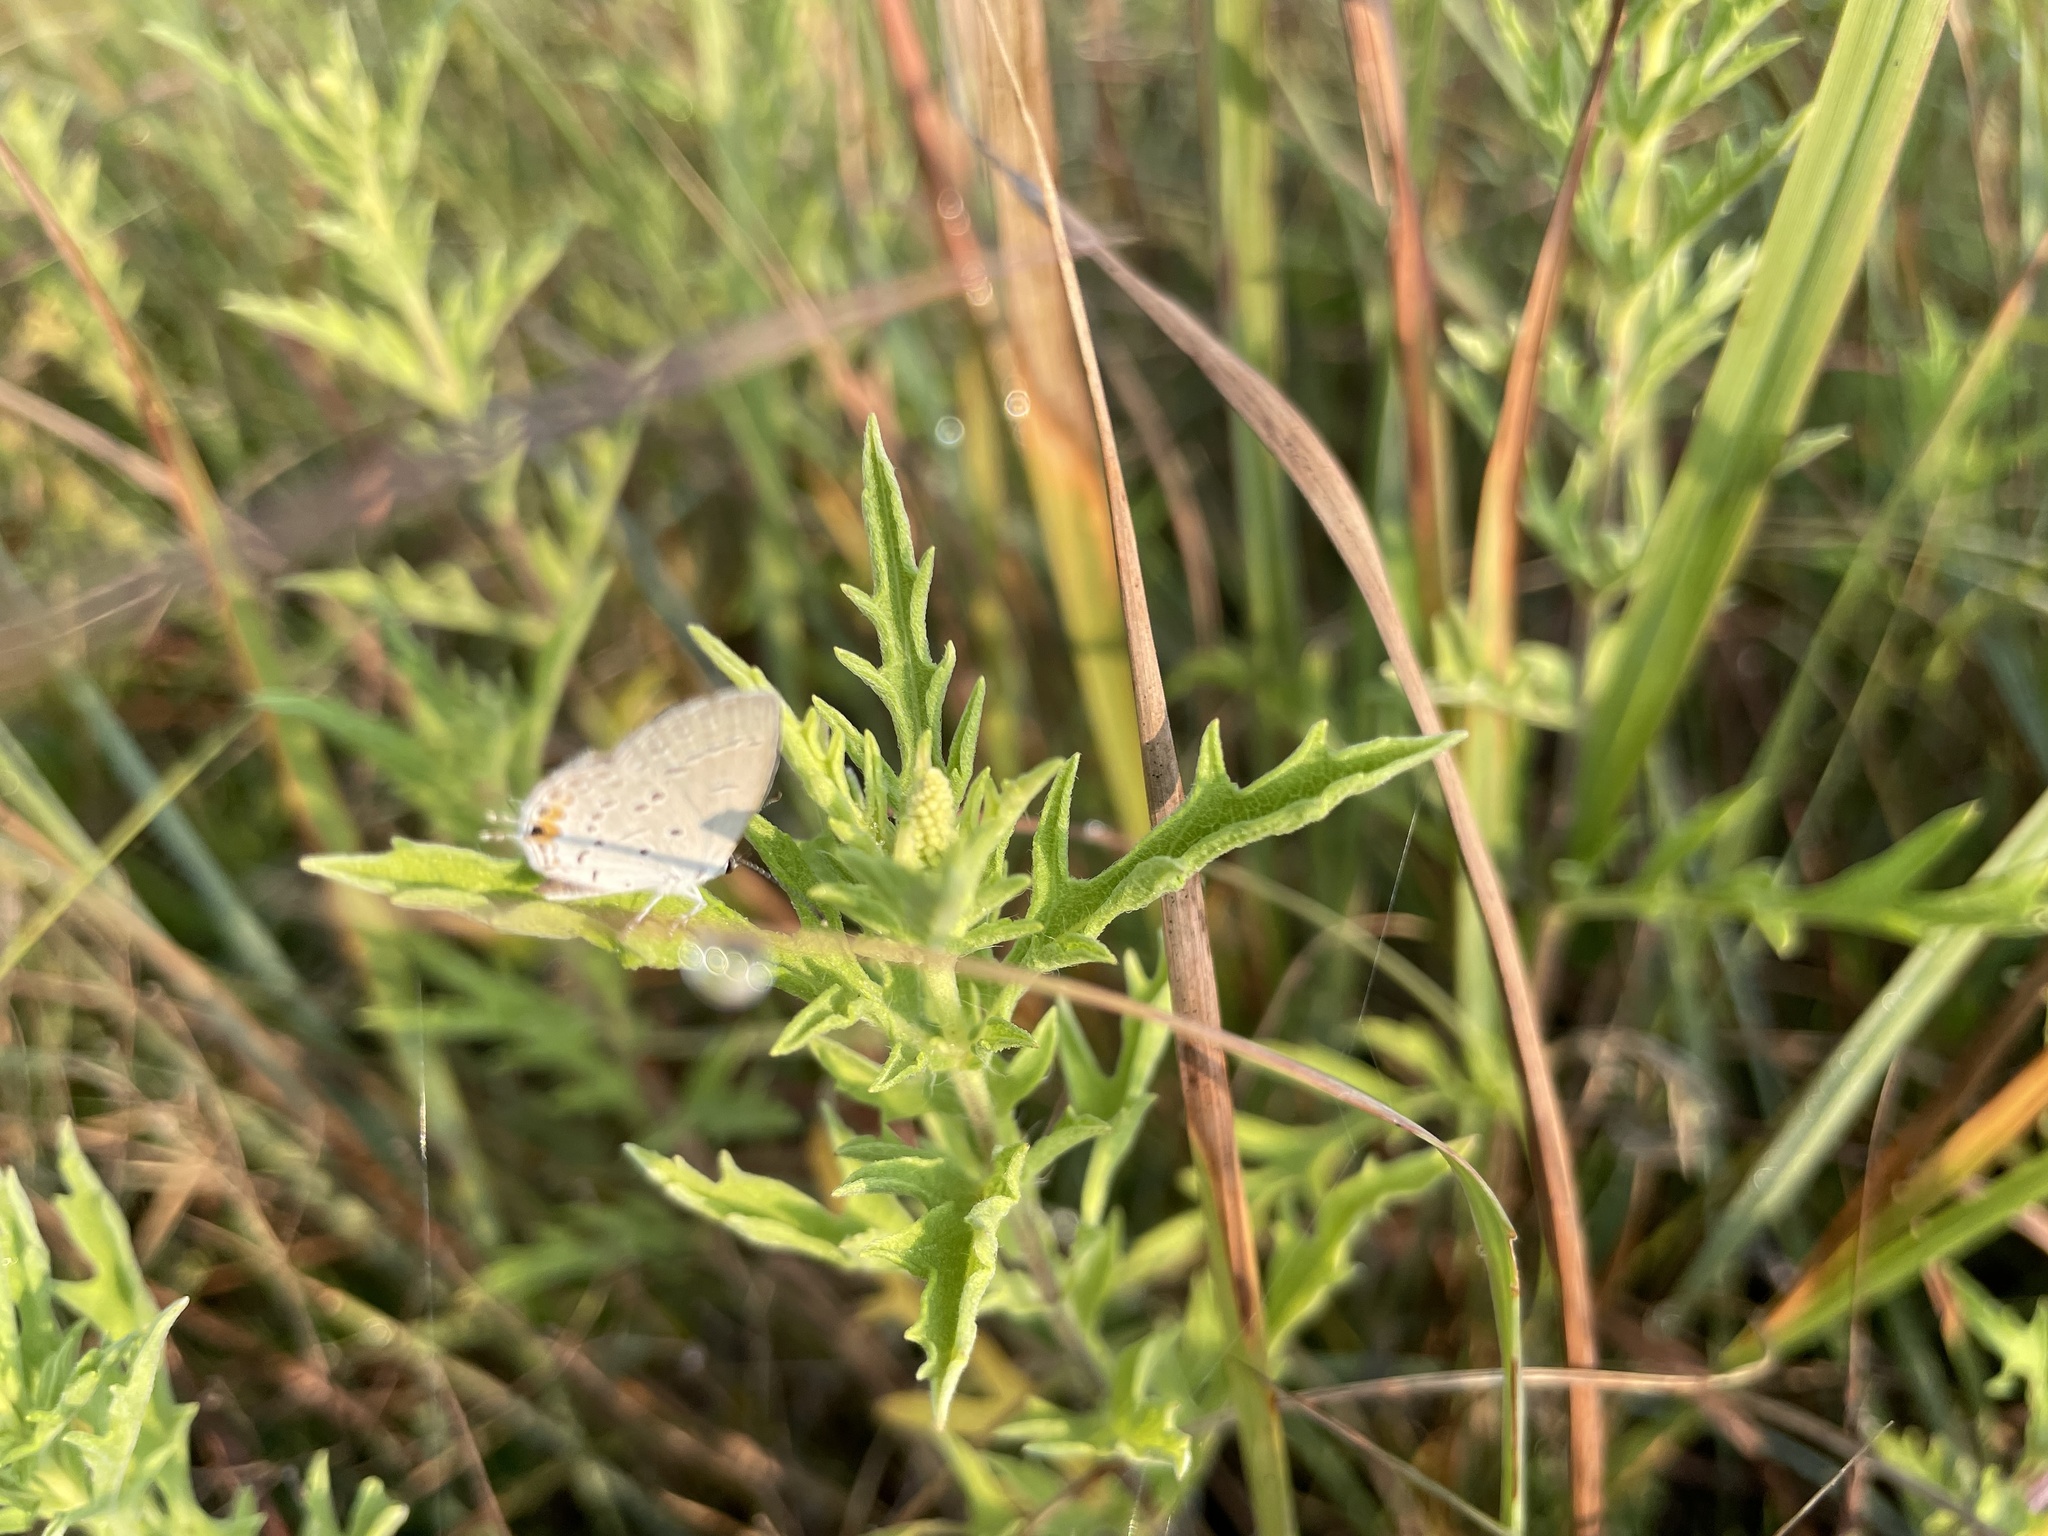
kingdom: Animalia
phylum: Arthropoda
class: Insecta
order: Lepidoptera
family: Lycaenidae
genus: Elkalyce
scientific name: Elkalyce comyntas
